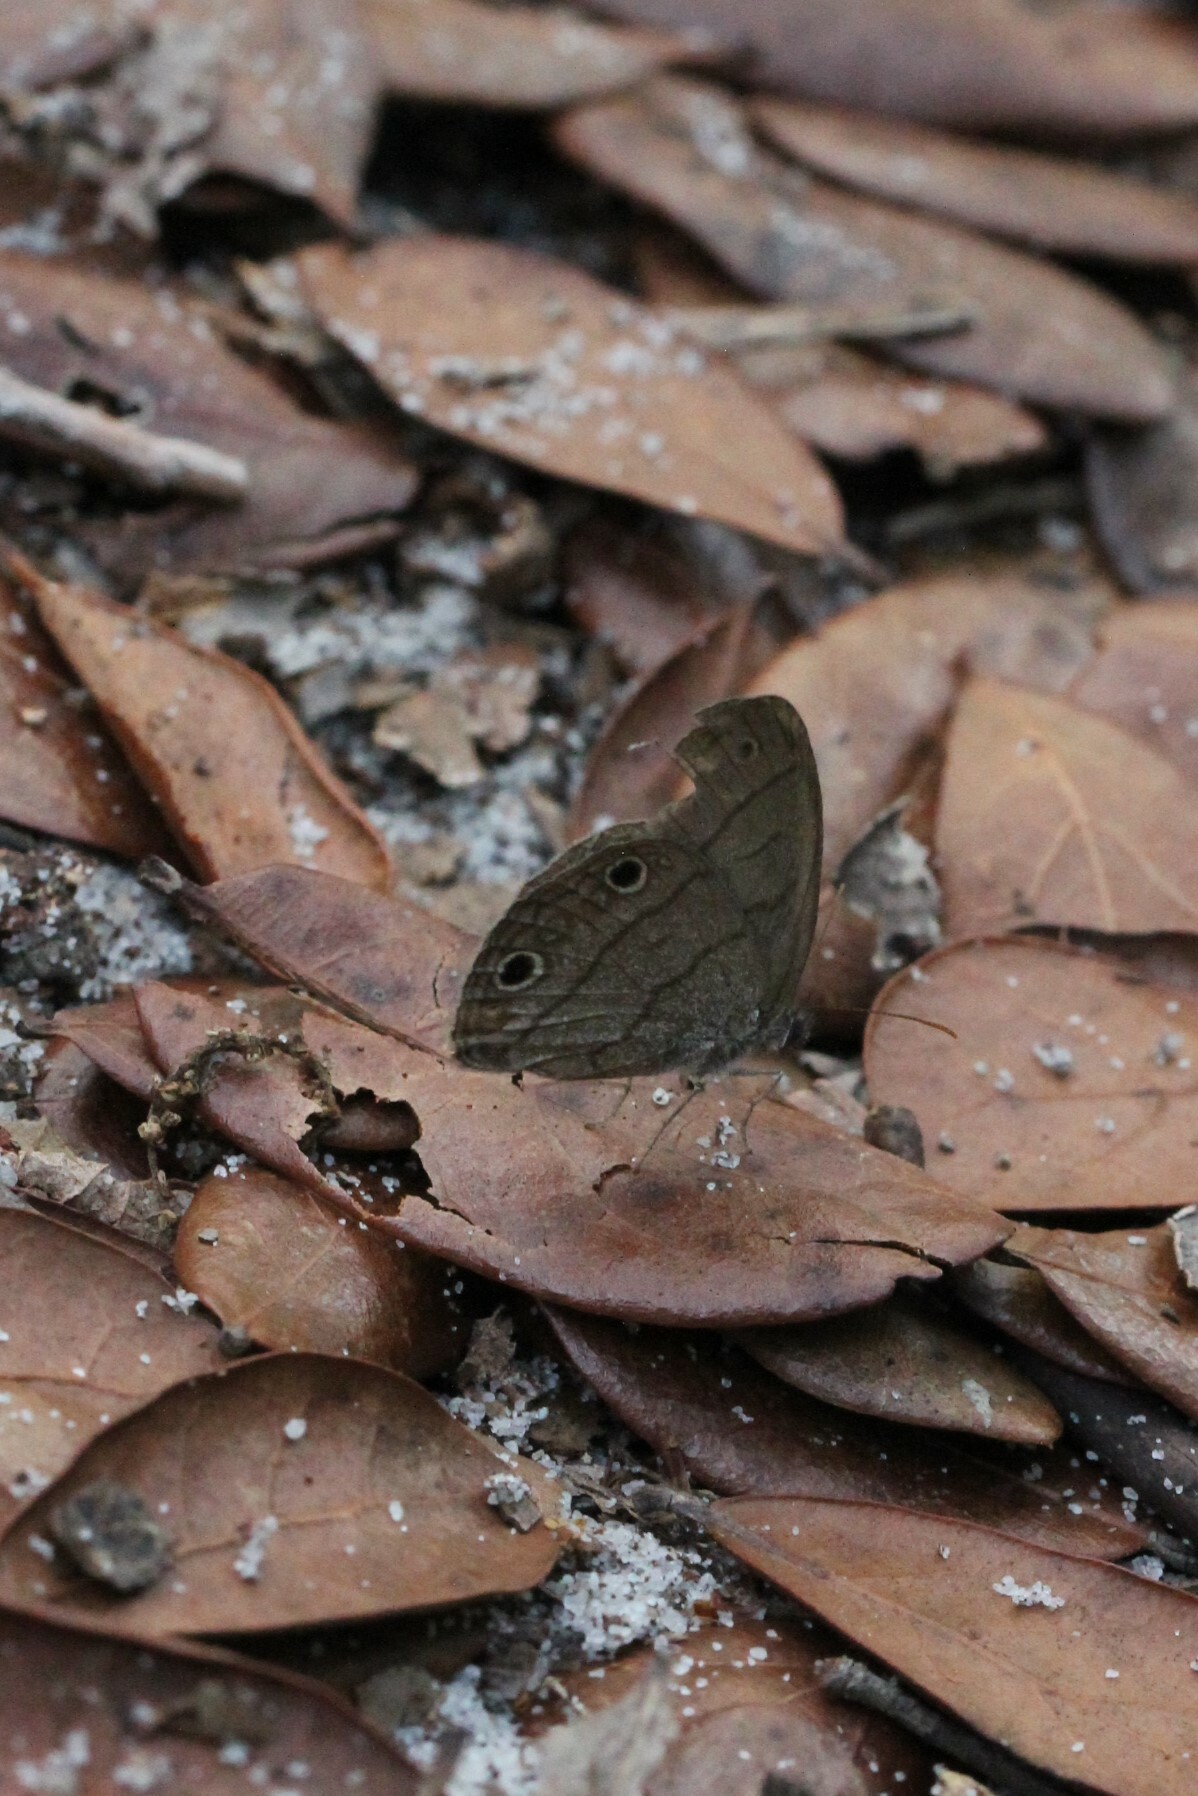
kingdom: Animalia
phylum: Arthropoda
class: Insecta
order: Lepidoptera
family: Nymphalidae
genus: Hermeuptychia
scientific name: Hermeuptychia hermes
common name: Hermes satyr
